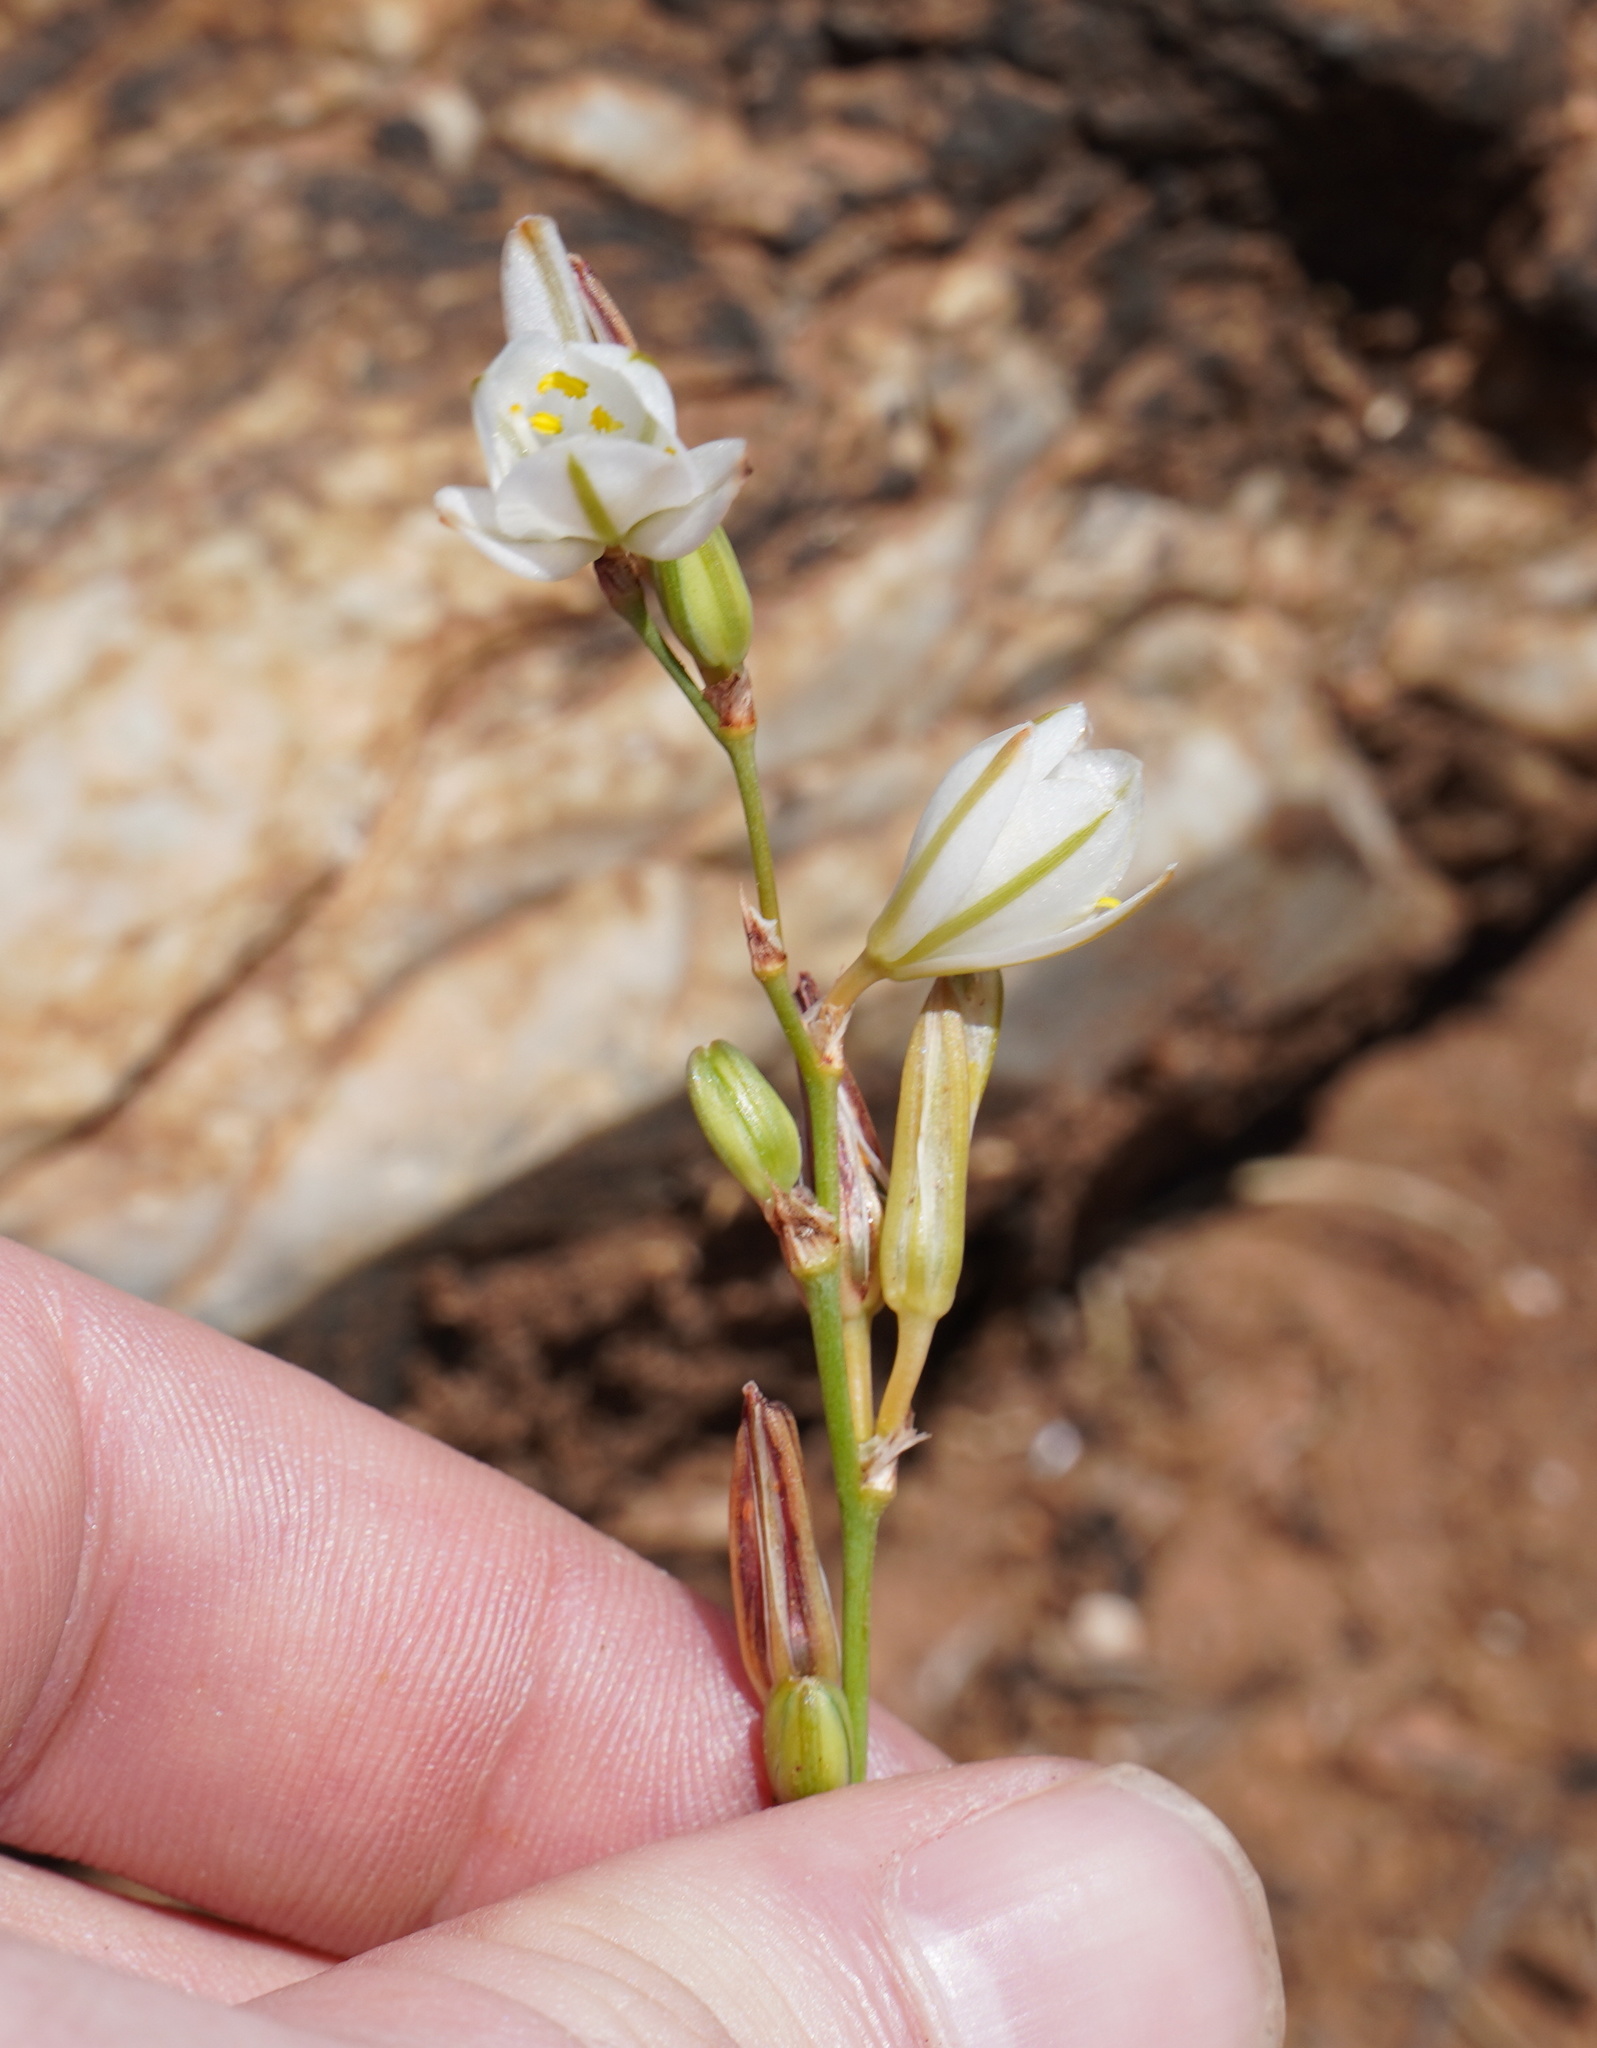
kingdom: Plantae
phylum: Tracheophyta
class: Liliopsida
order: Asparagales
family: Asparagaceae
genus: Chlorophytum
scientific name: Chlorophytum transvaalense
